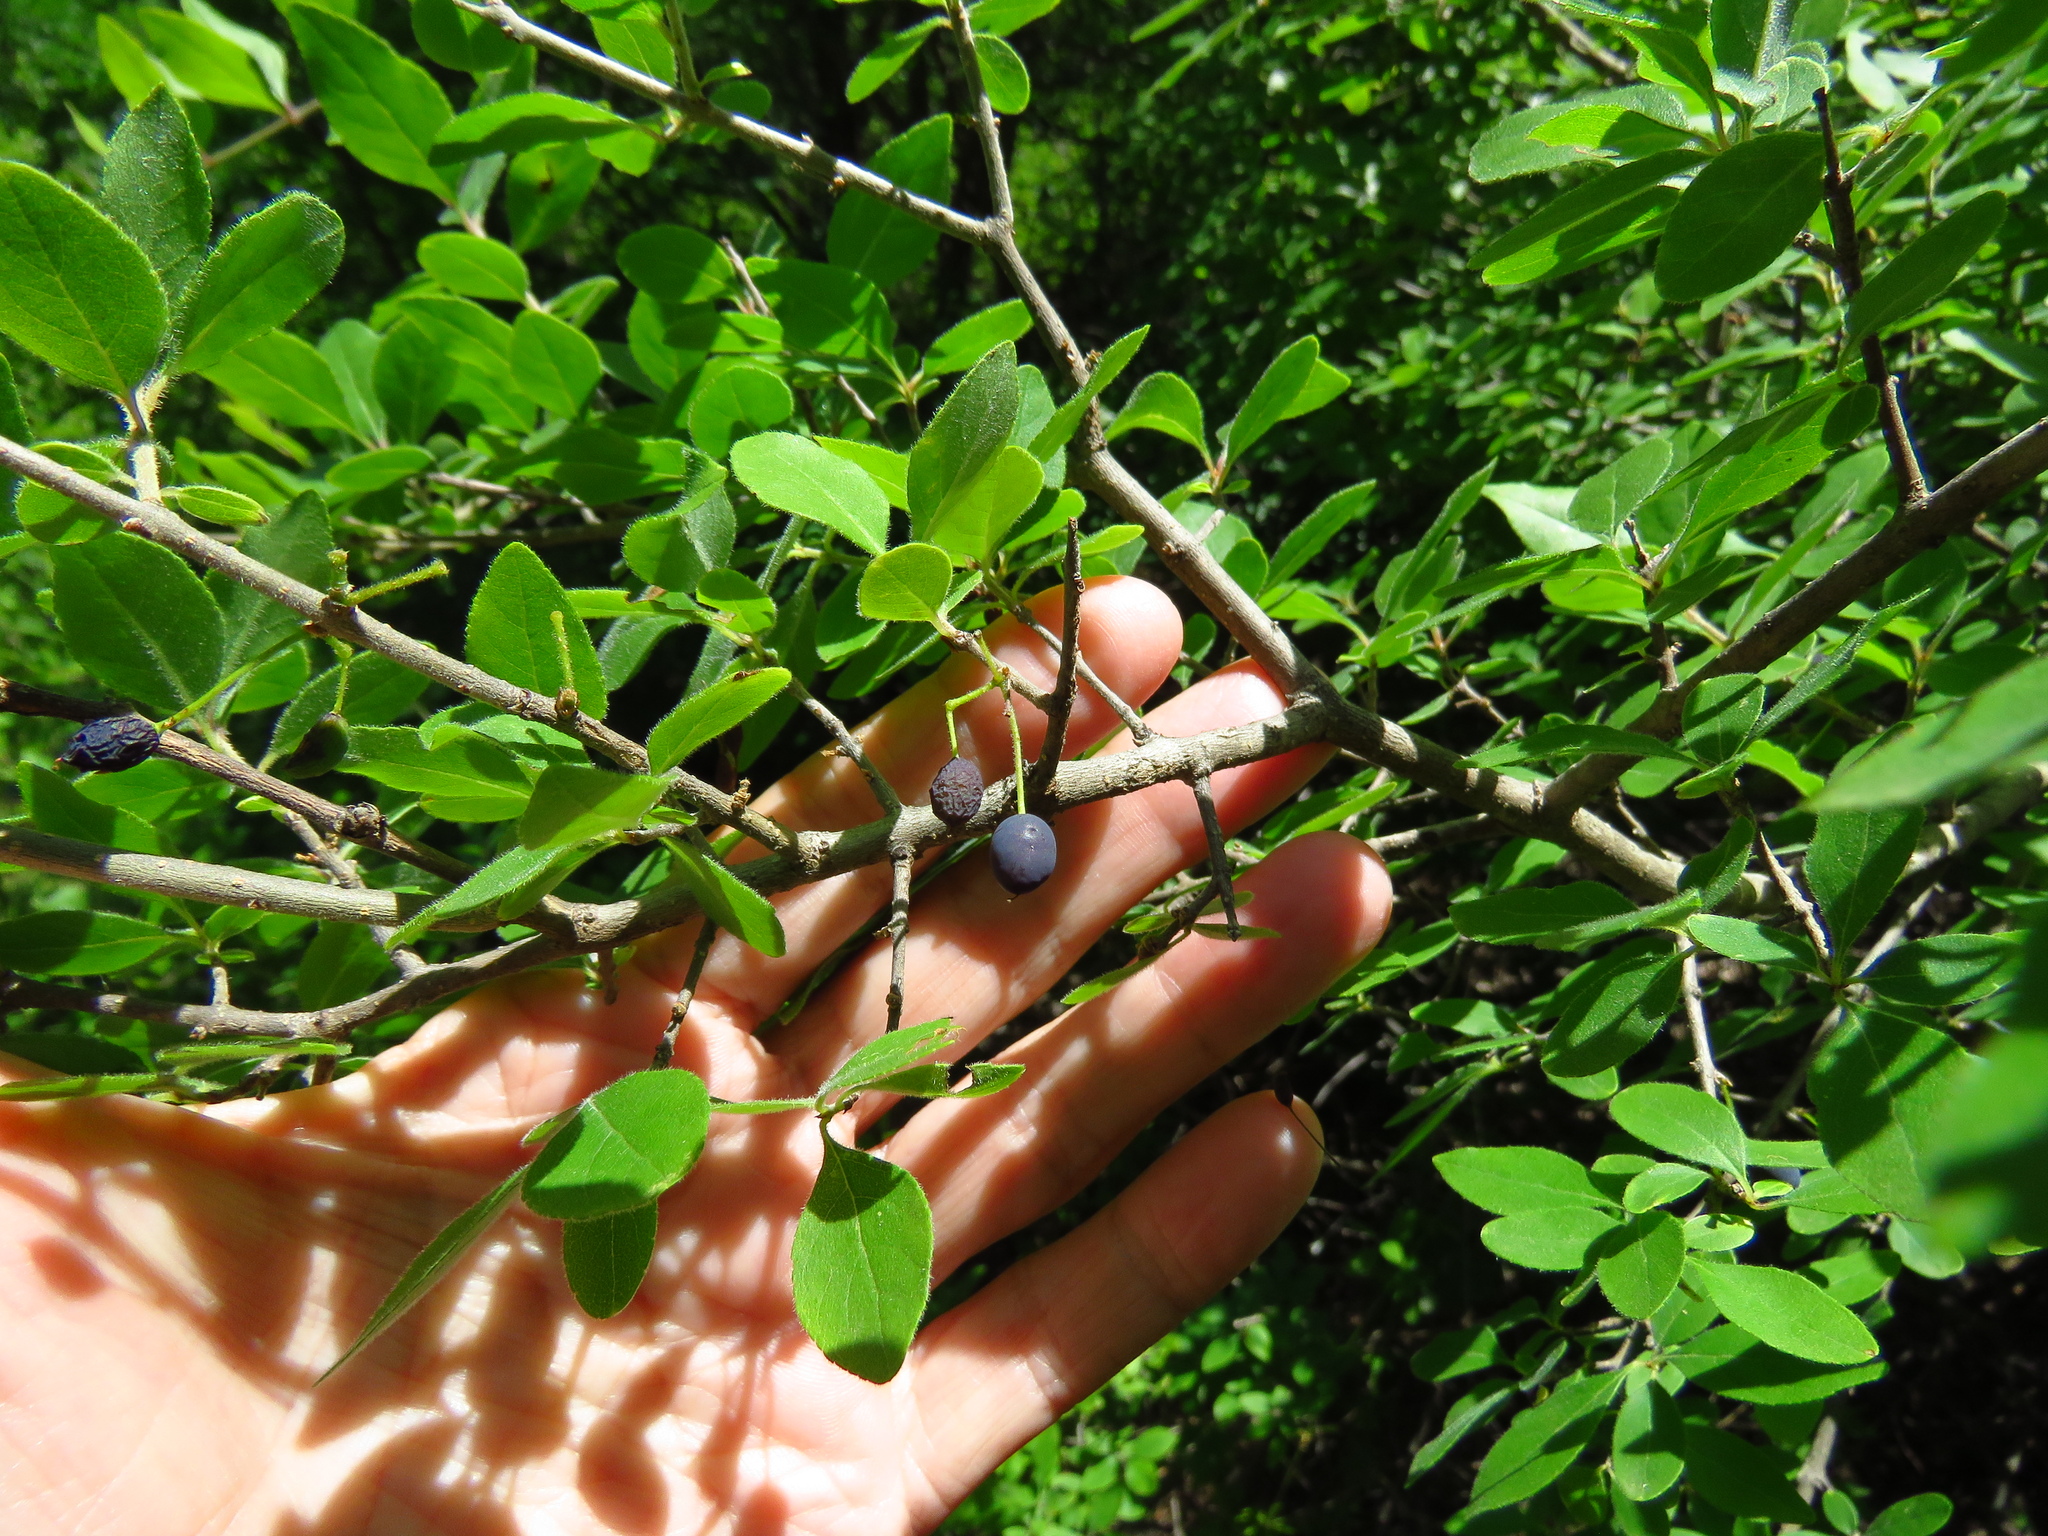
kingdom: Plantae
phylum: Tracheophyta
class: Magnoliopsida
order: Lamiales
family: Oleaceae
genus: Forestiera
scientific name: Forestiera pubescens
